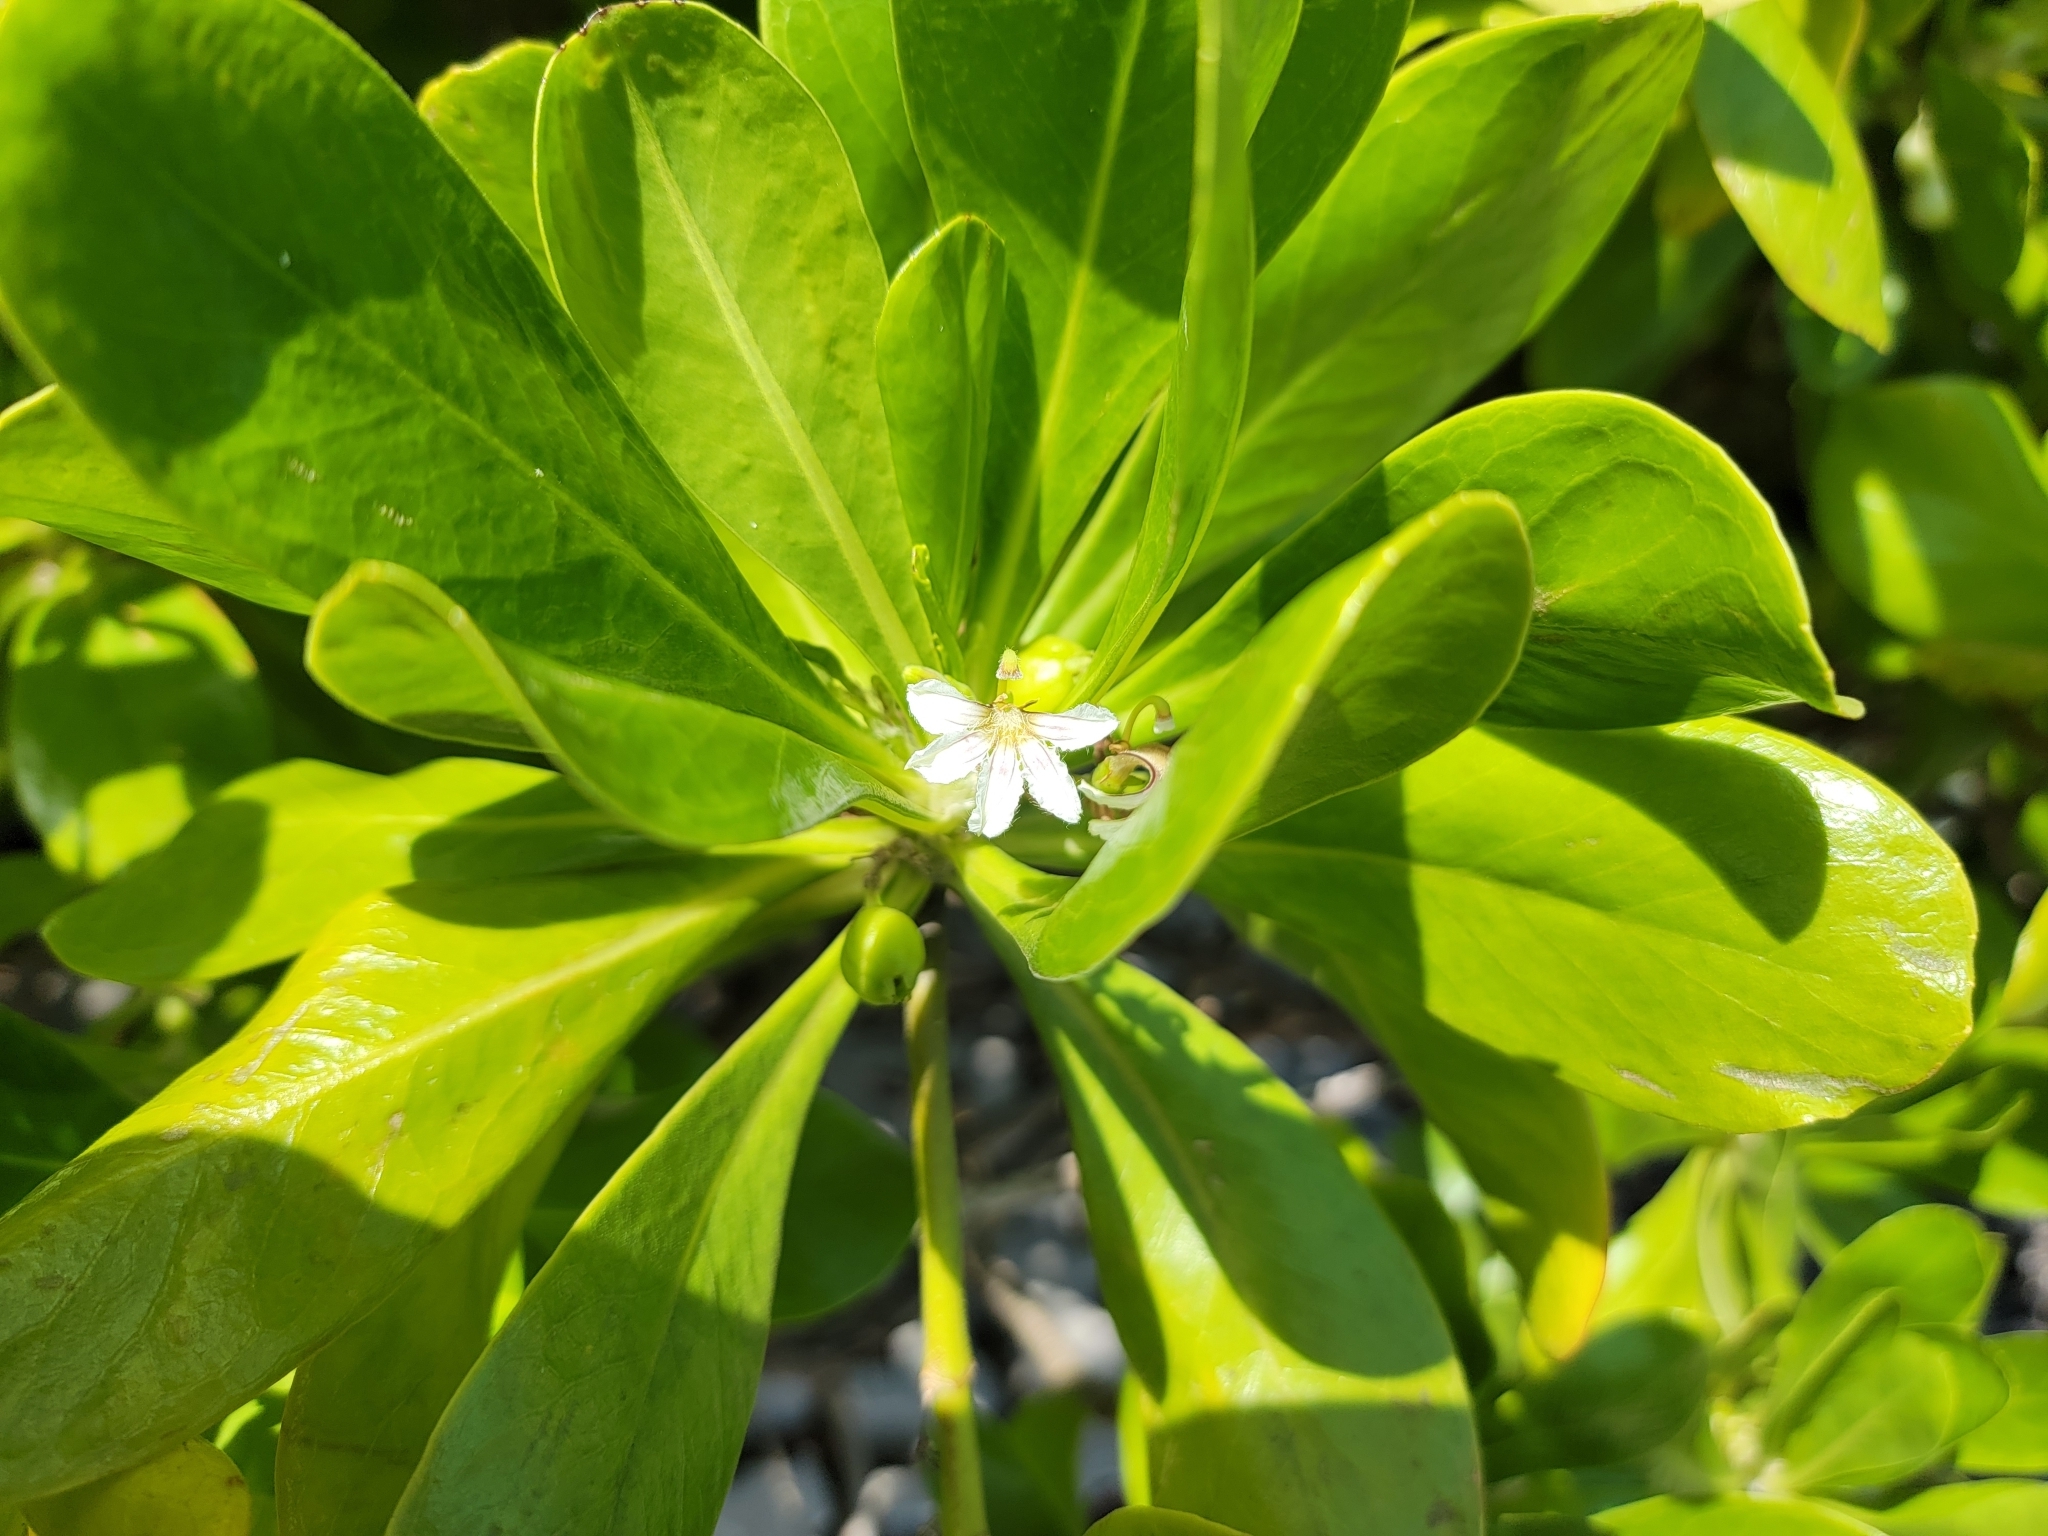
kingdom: Plantae
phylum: Tracheophyta
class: Magnoliopsida
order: Asterales
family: Goodeniaceae
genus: Scaevola
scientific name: Scaevola taccada
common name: Sea lettucetree
